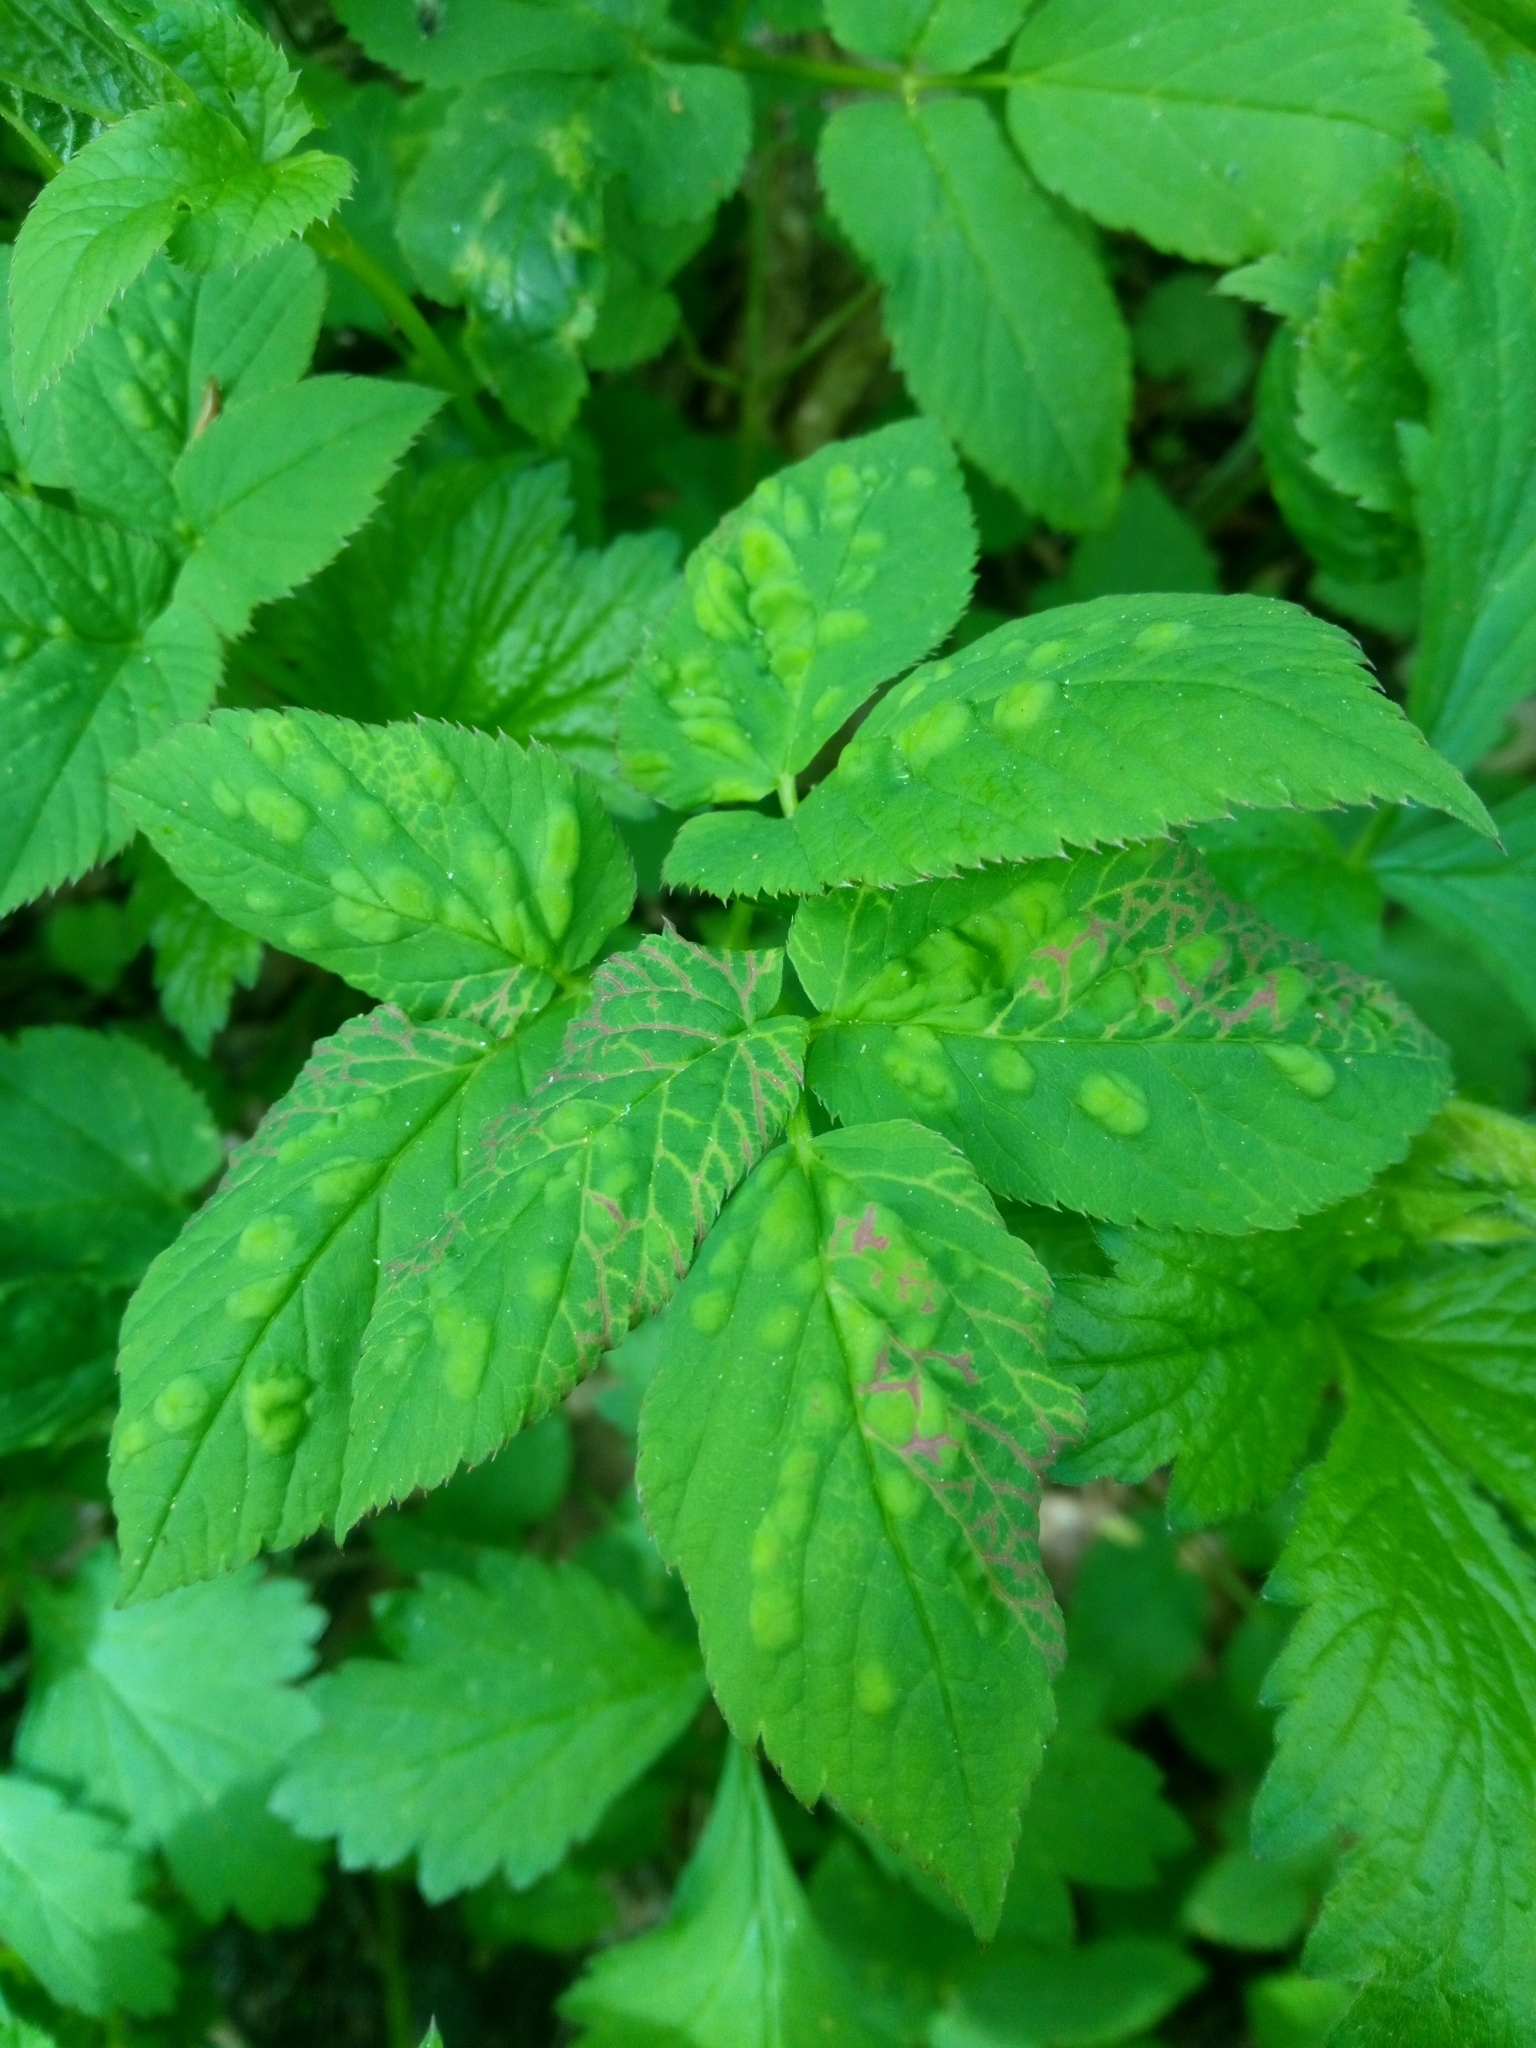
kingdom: Animalia
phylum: Arthropoda
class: Insecta
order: Hemiptera
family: Triozidae
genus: Trioza
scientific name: Trioza flavipennis
